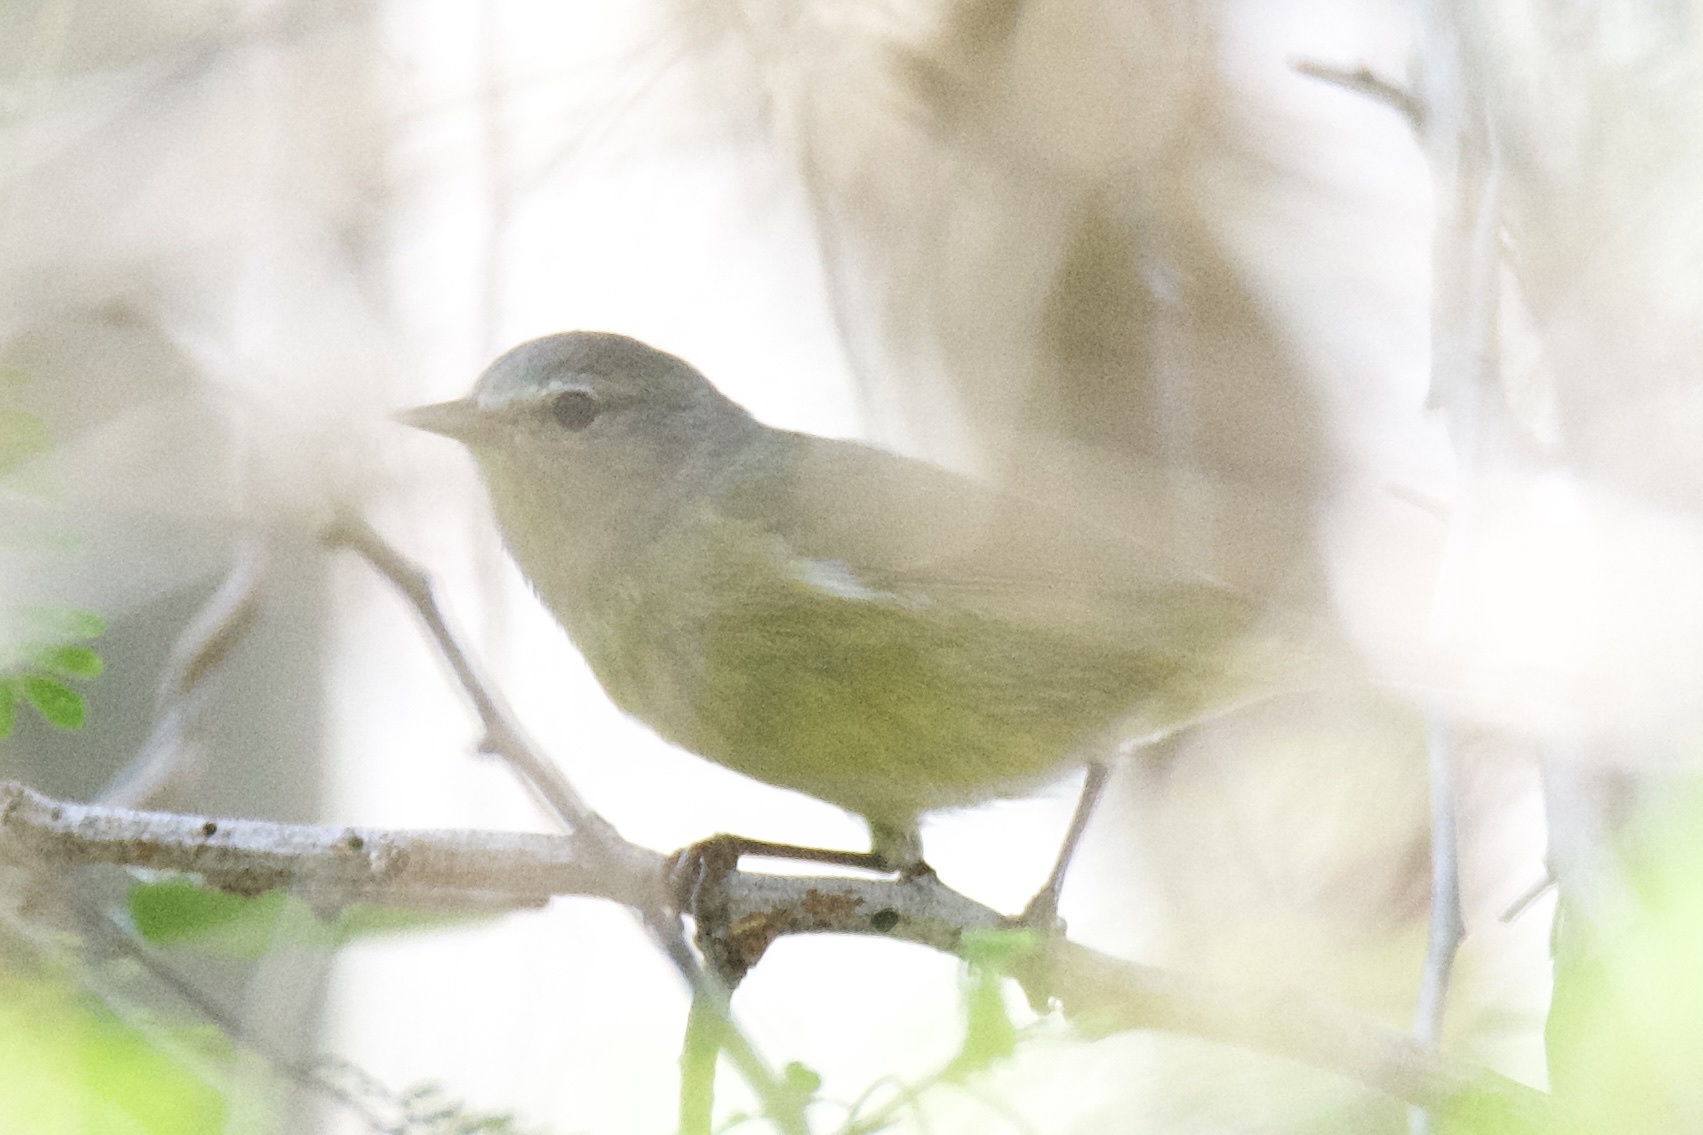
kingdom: Animalia
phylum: Chordata
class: Aves
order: Passeriformes
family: Parulidae
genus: Leiothlypis
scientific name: Leiothlypis celata
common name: Orange-crowned warbler
